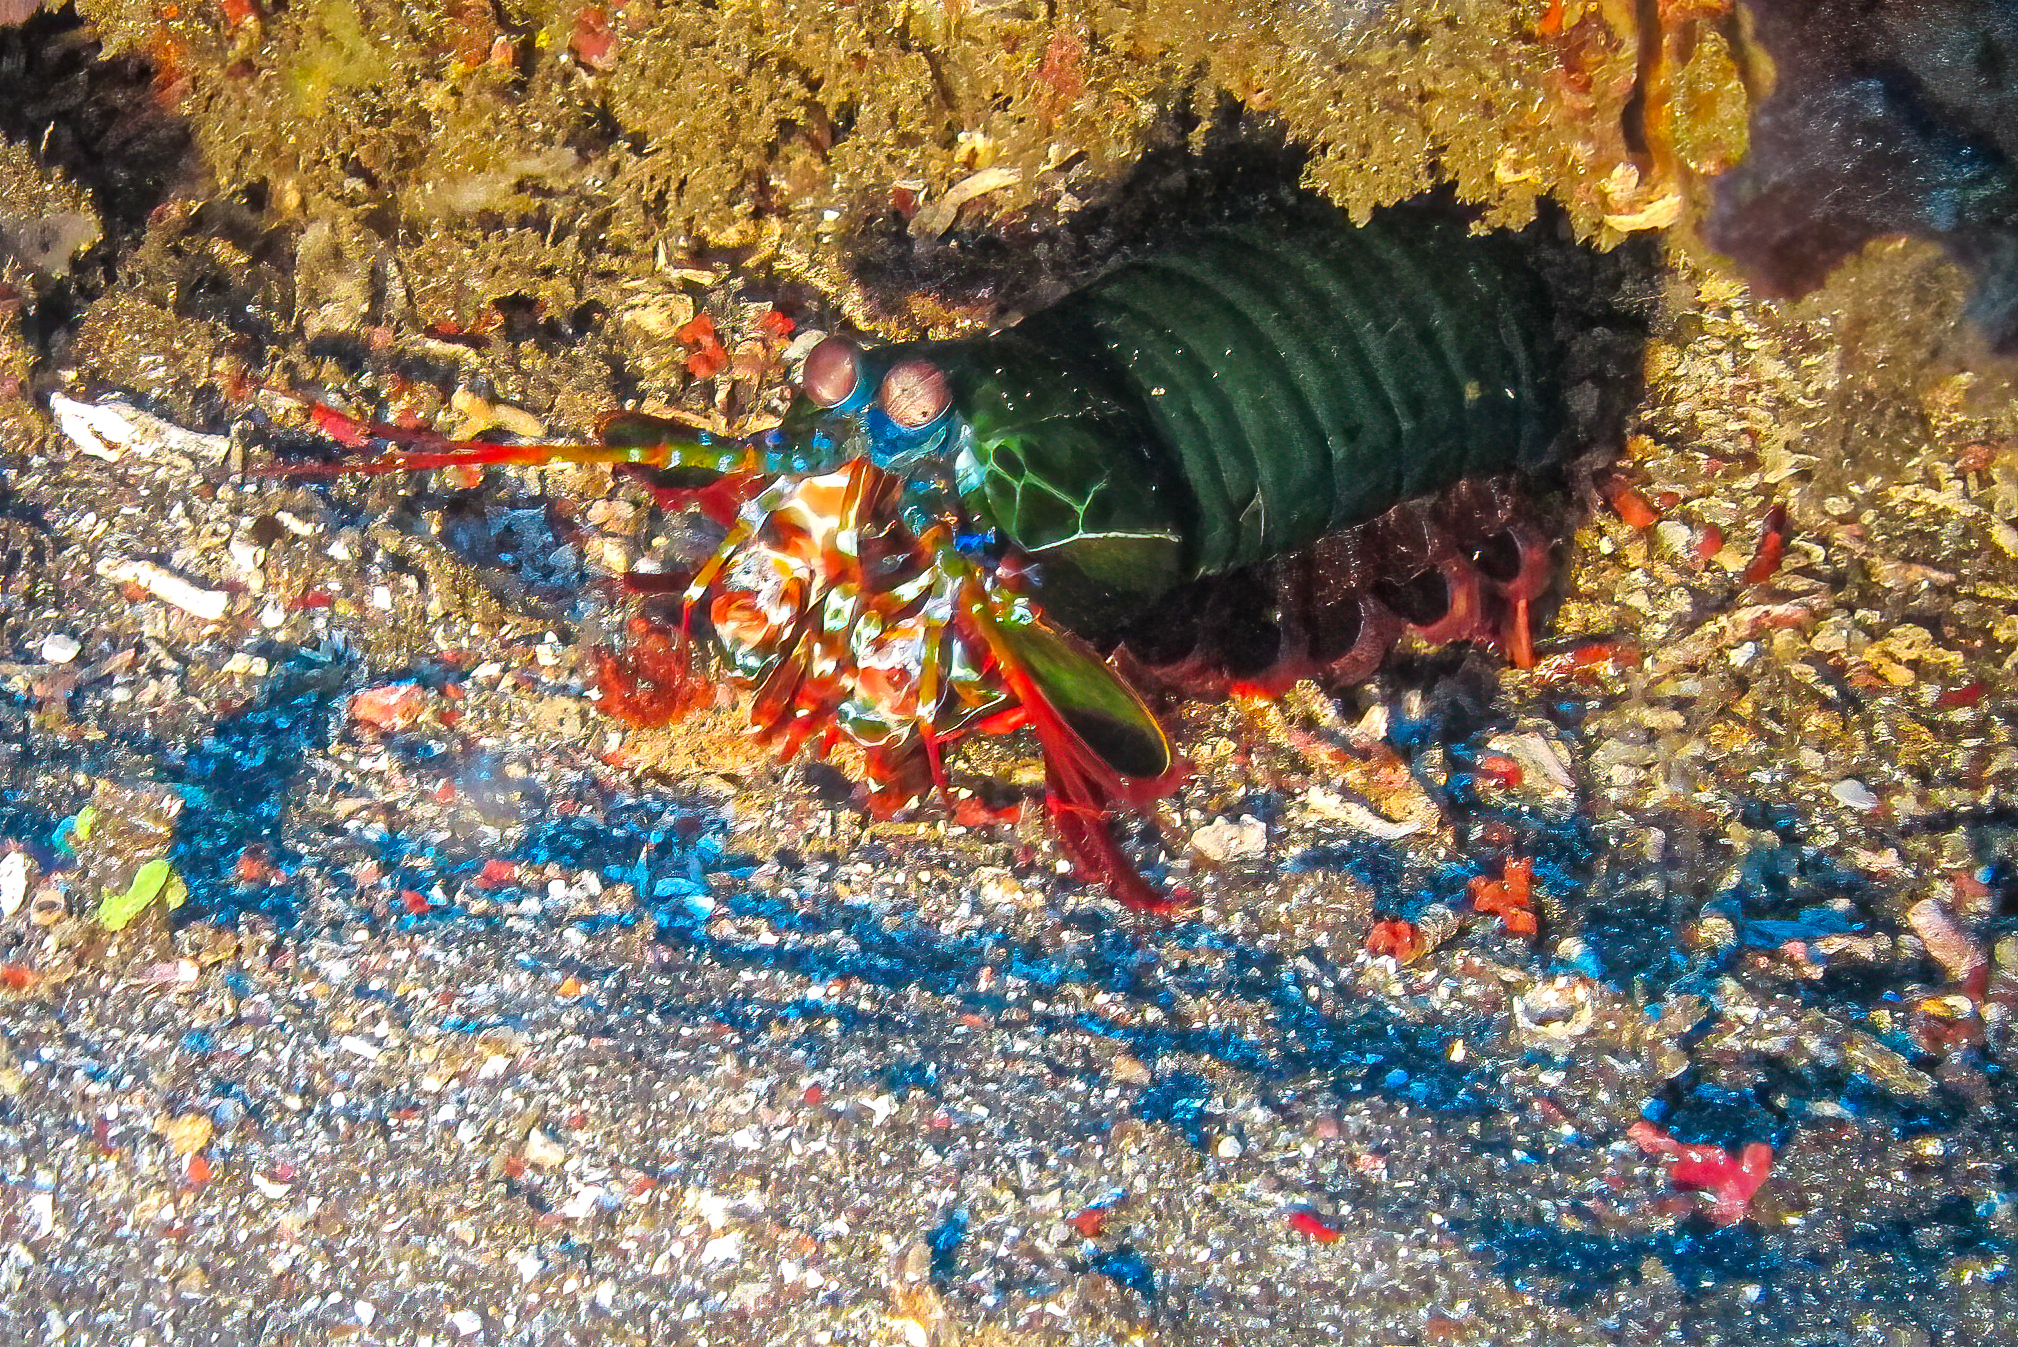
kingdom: Animalia
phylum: Arthropoda
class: Malacostraca
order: Stomatopoda
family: Odontodactylidae
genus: Odontodactylus
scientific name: Odontodactylus scyllarus
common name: Peacock mantis shrimp
